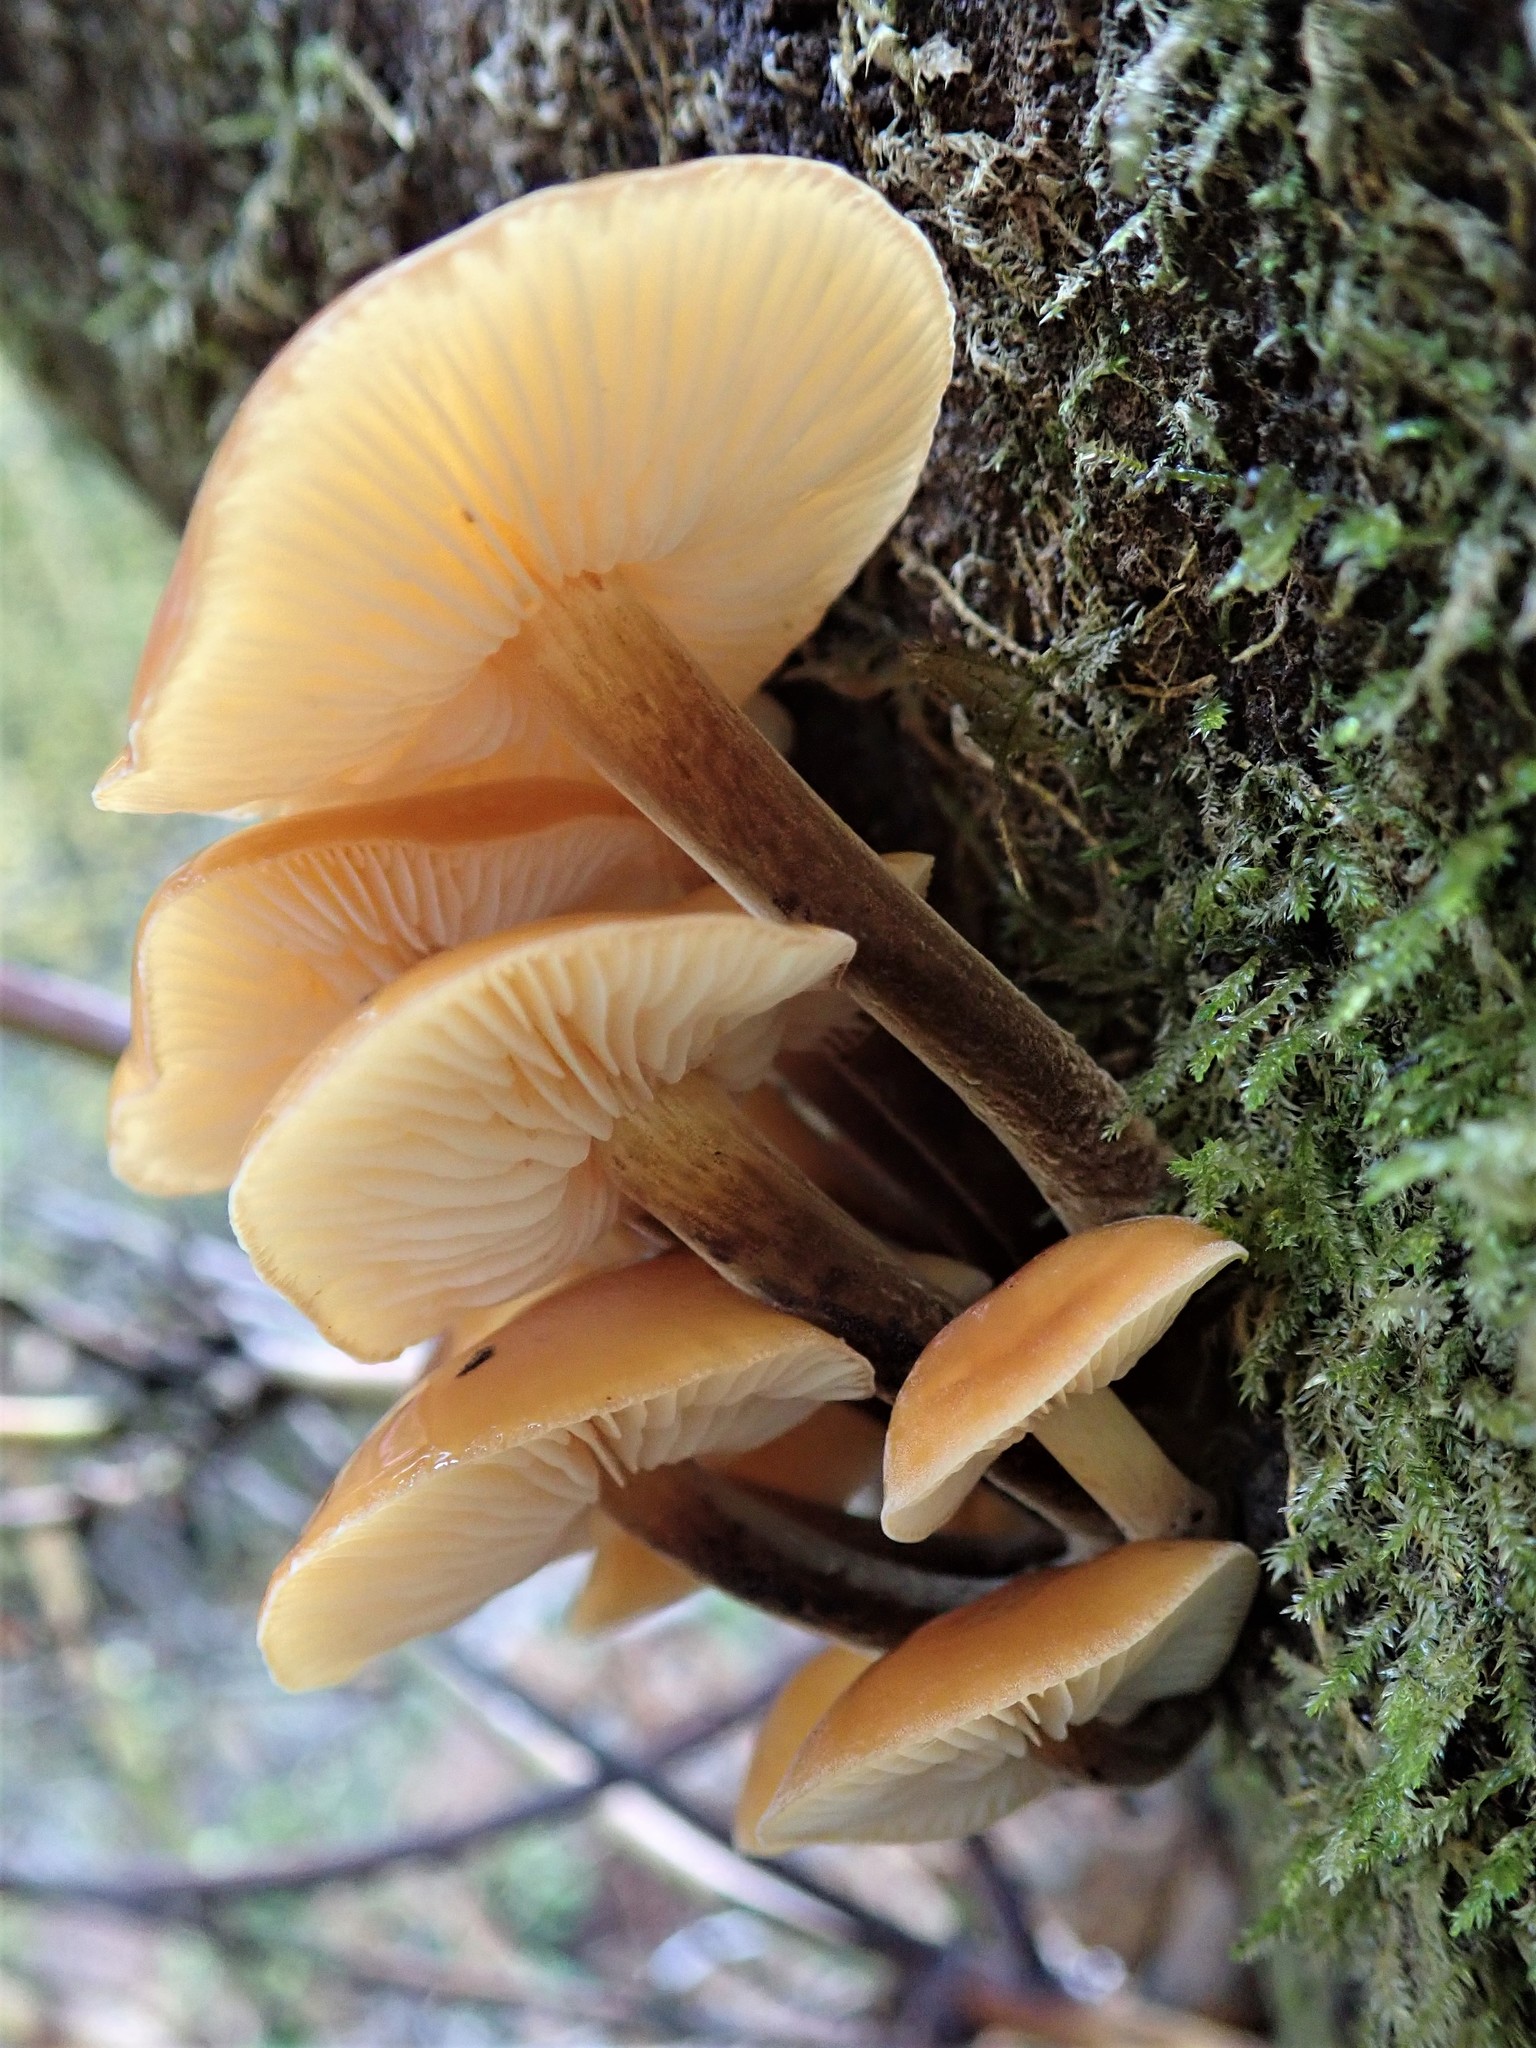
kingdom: Fungi
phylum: Basidiomycota
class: Agaricomycetes
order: Agaricales
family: Physalacriaceae
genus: Flammulina
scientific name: Flammulina velutipes
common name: Velvet shank
